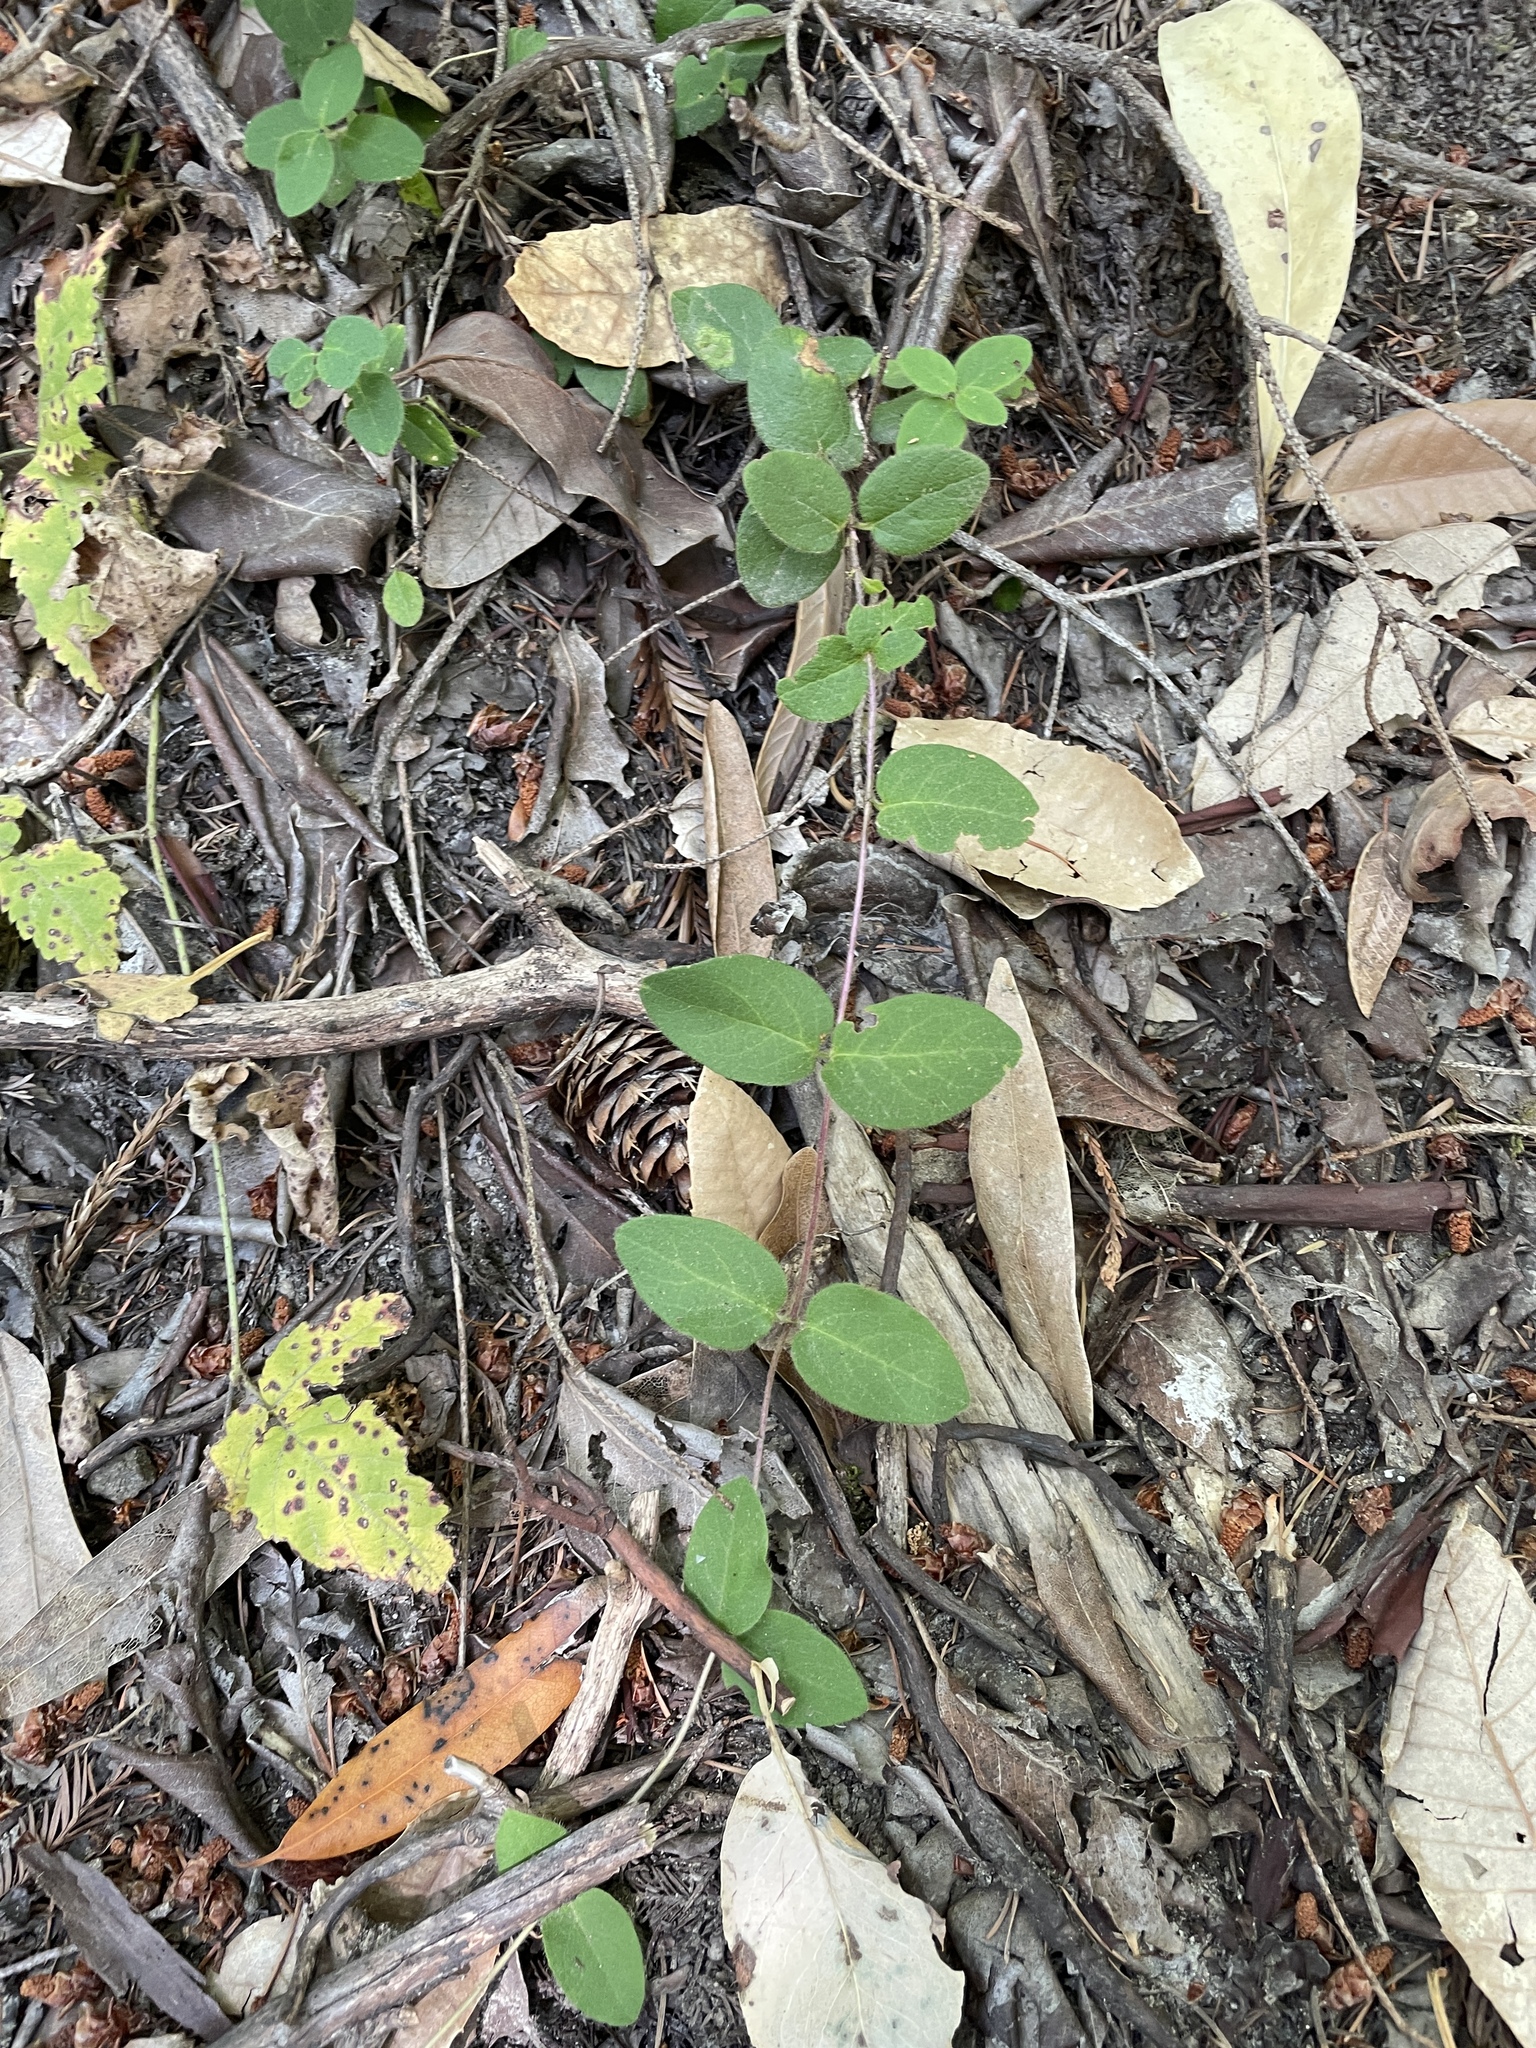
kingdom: Plantae
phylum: Tracheophyta
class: Magnoliopsida
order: Dipsacales
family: Caprifoliaceae
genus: Lonicera
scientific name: Lonicera hispidula
